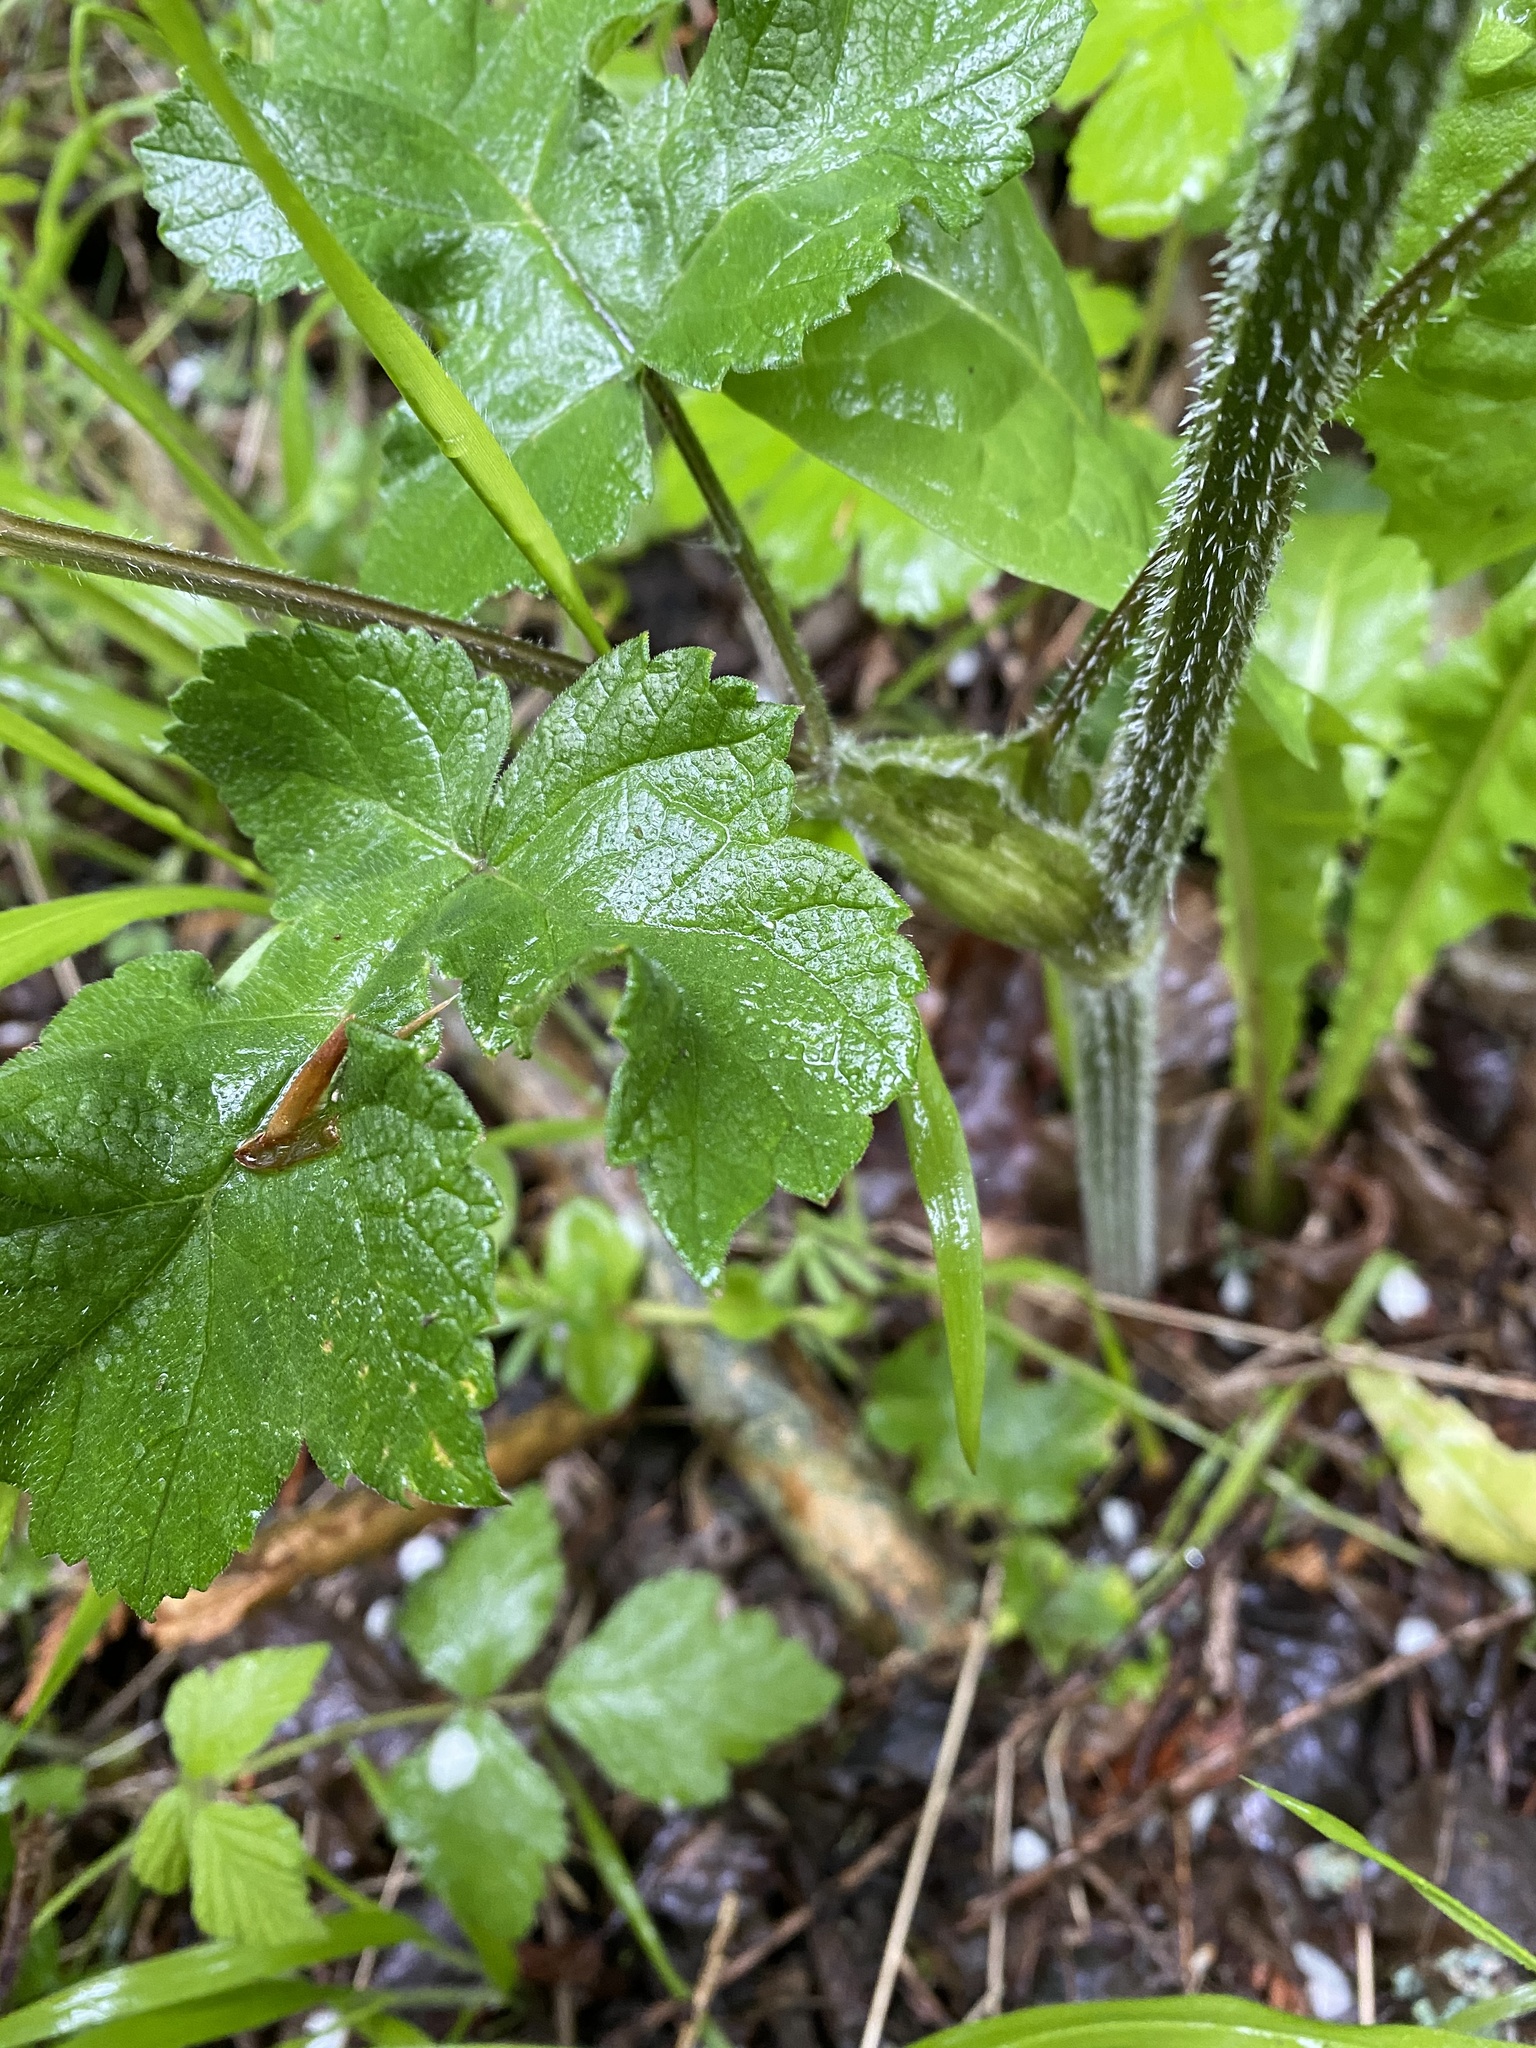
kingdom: Plantae
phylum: Tracheophyta
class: Magnoliopsida
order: Apiales
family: Apiaceae
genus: Heracleum
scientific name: Heracleum sphondylium
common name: Hogweed
